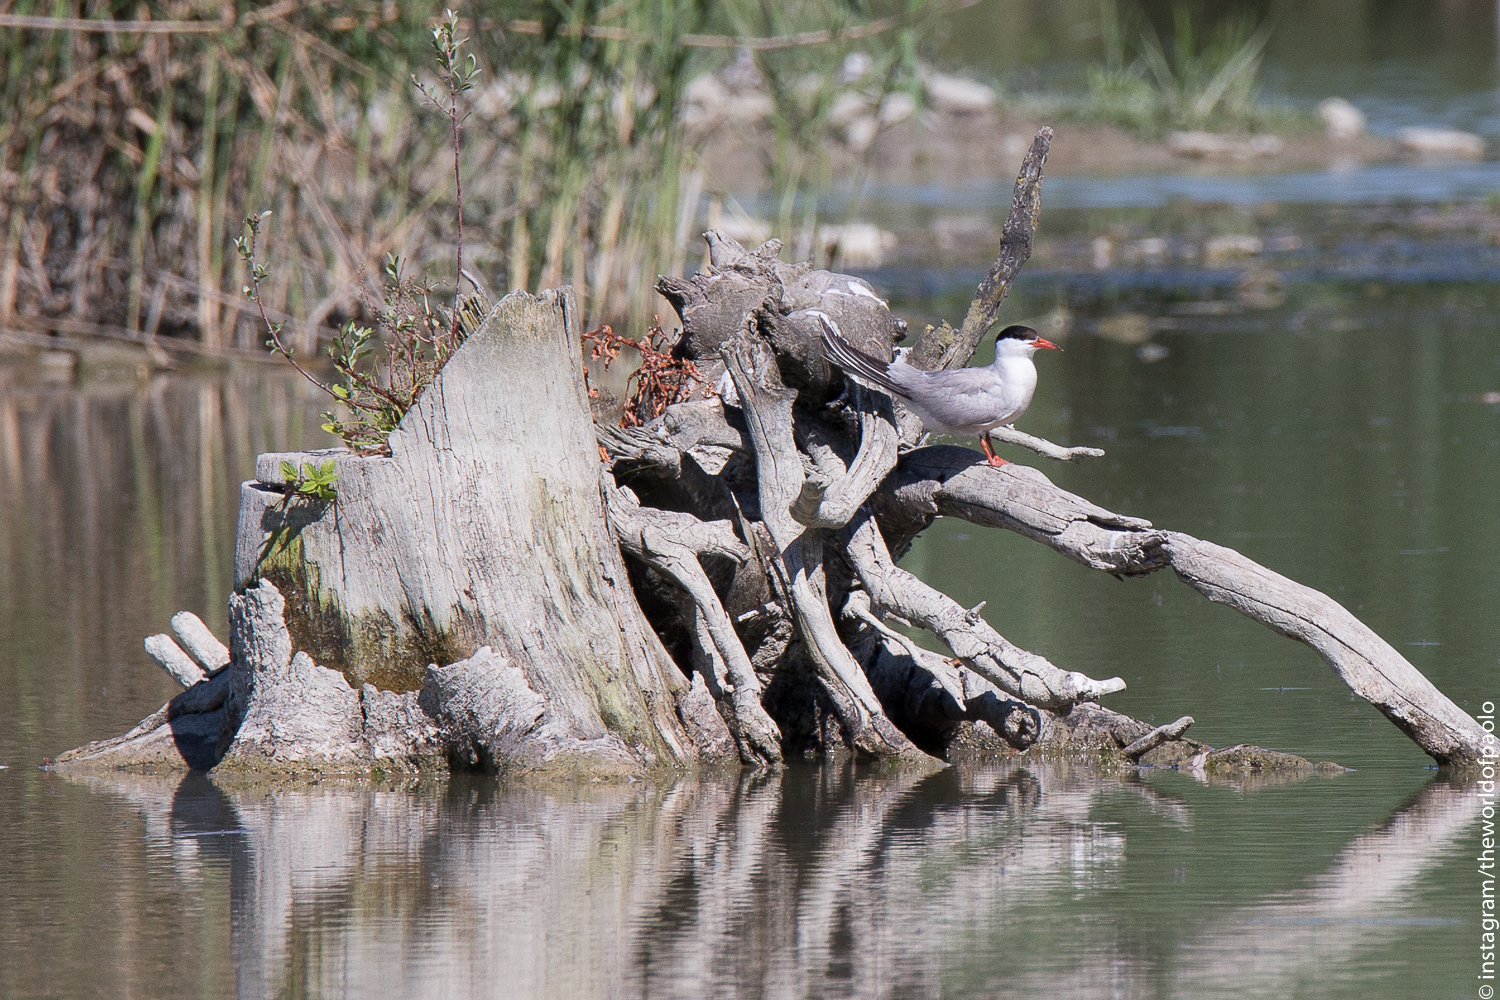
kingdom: Animalia
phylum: Chordata
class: Aves
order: Charadriiformes
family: Laridae
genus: Sterna
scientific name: Sterna hirundo
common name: Common tern
